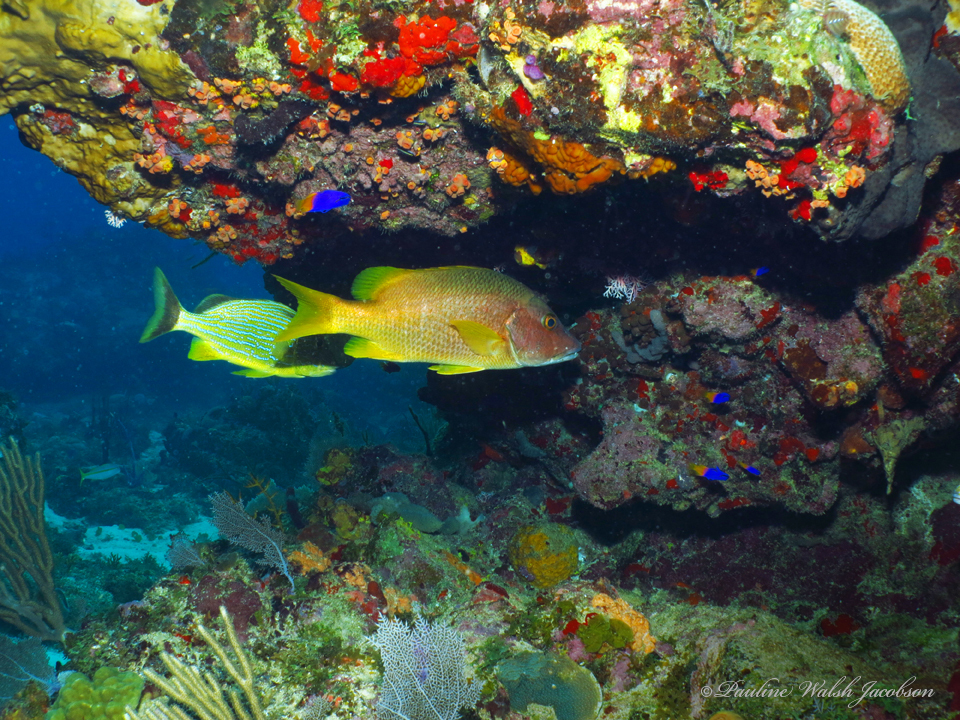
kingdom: Animalia
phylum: Chordata
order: Perciformes
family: Lutjanidae
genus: Lutjanus
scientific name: Lutjanus apodus
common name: Schoolmaster
